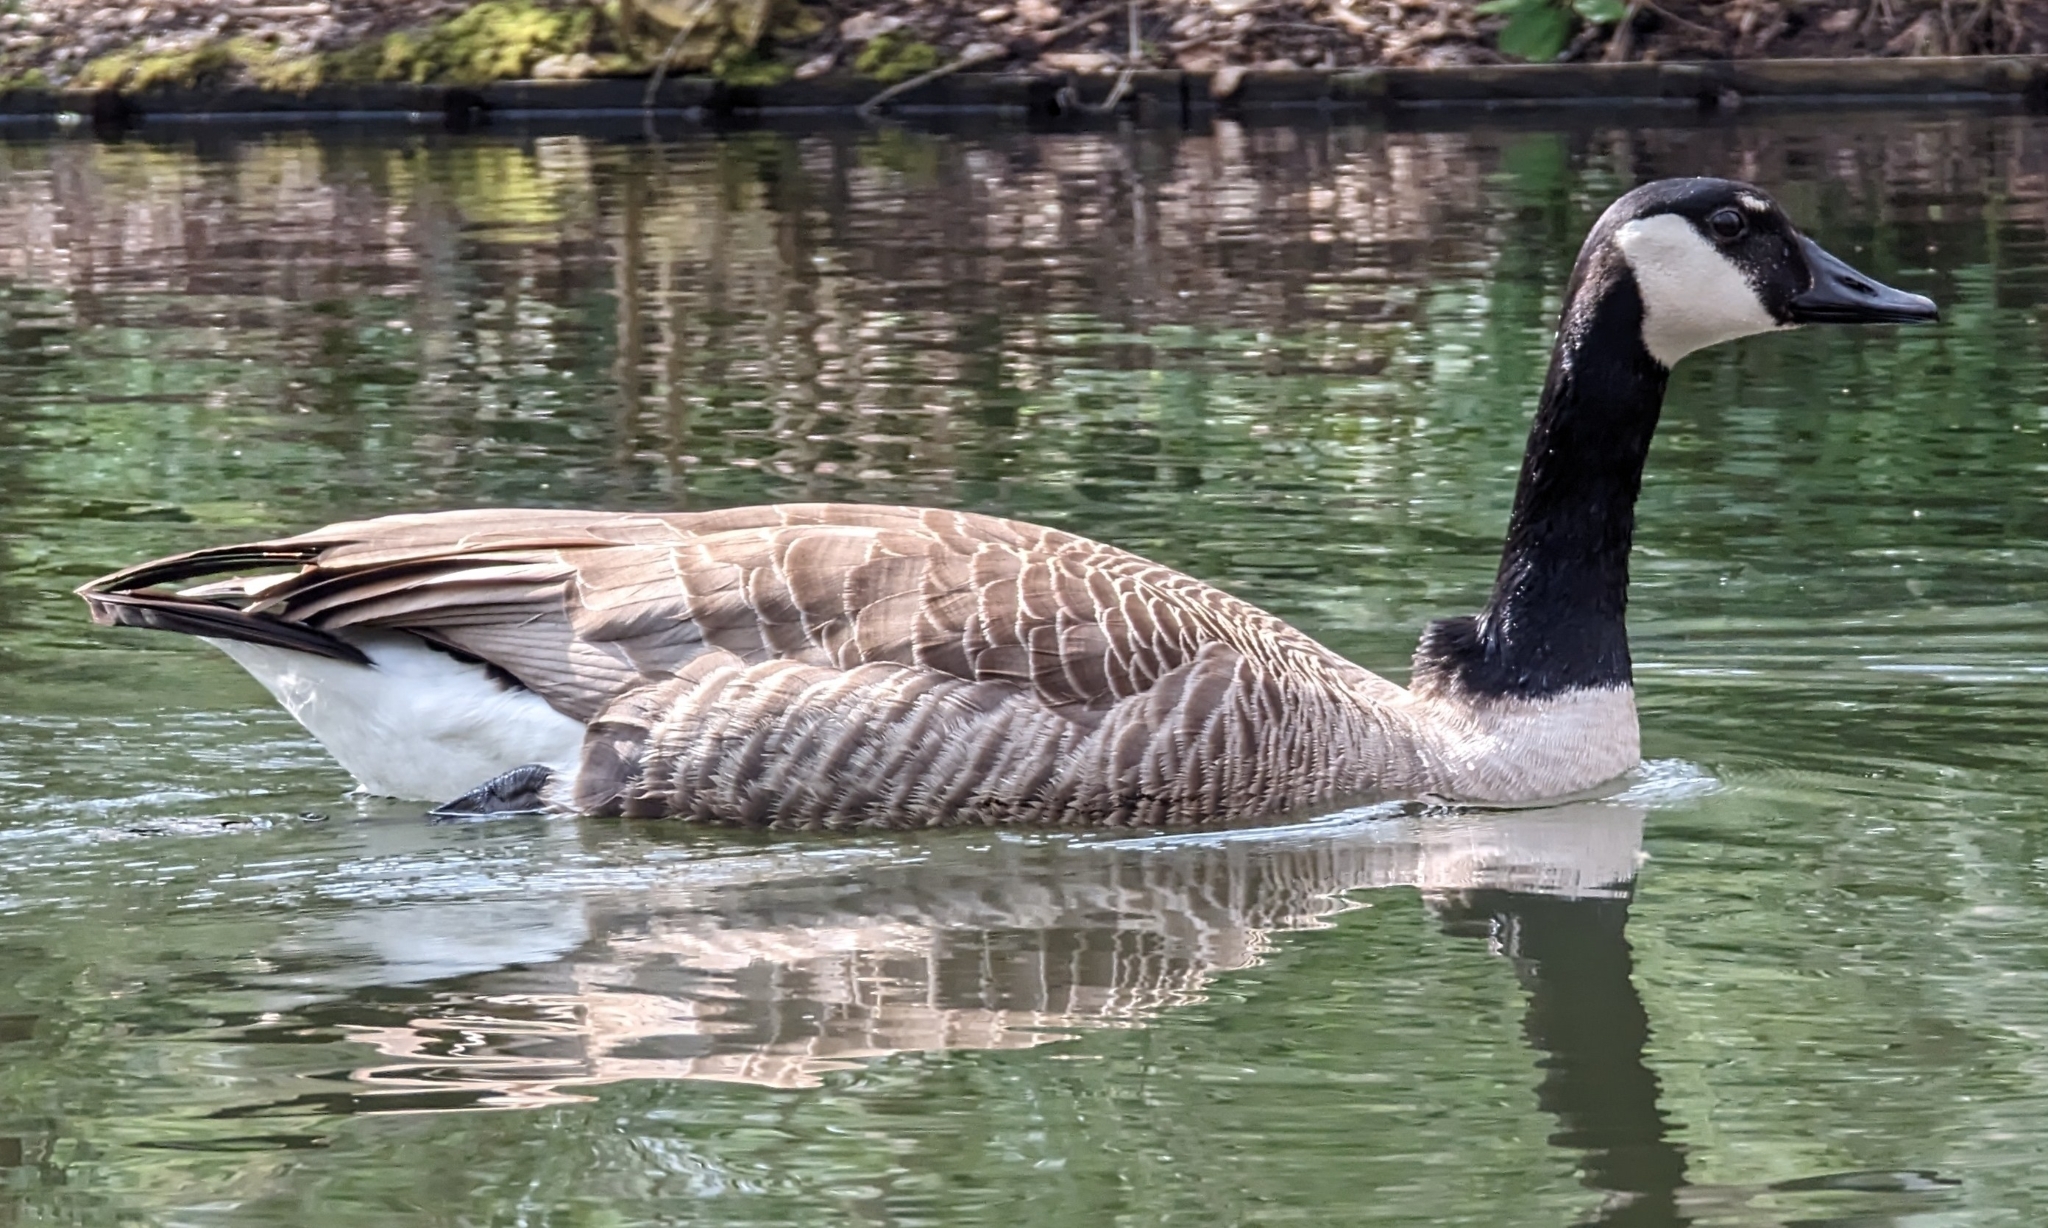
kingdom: Animalia
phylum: Chordata
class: Aves
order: Anseriformes
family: Anatidae
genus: Branta
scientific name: Branta canadensis
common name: Canada goose
